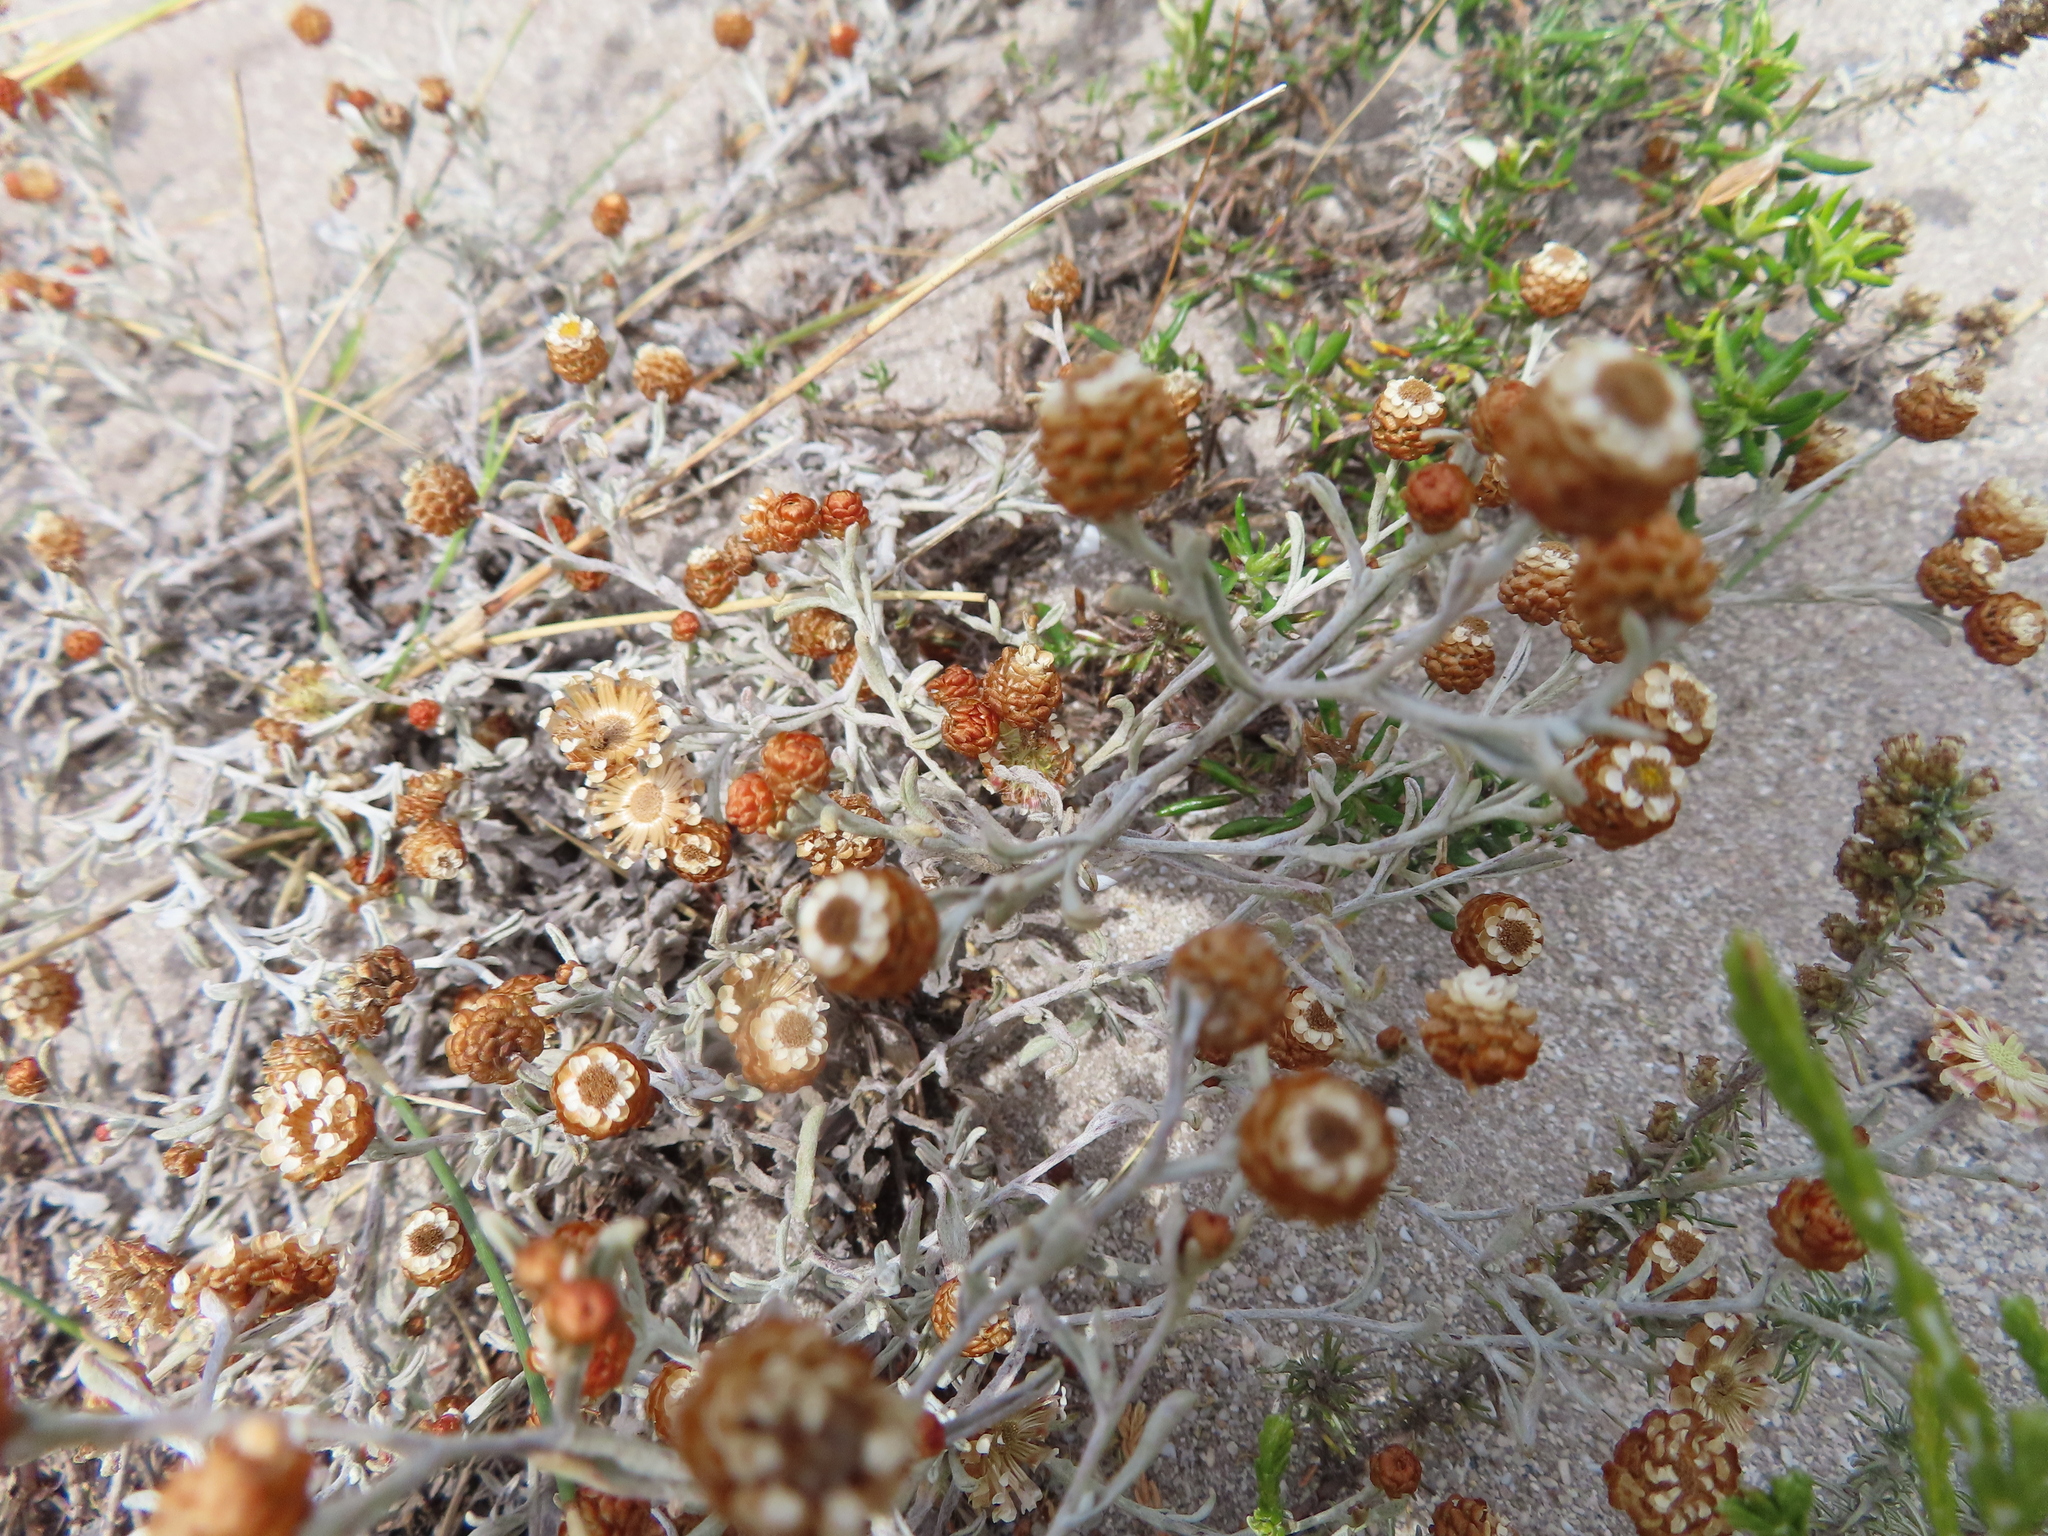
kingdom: Plantae
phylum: Tracheophyta
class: Magnoliopsida
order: Asterales
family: Asteraceae
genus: Helichrysum
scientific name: Helichrysum cochleariforme
